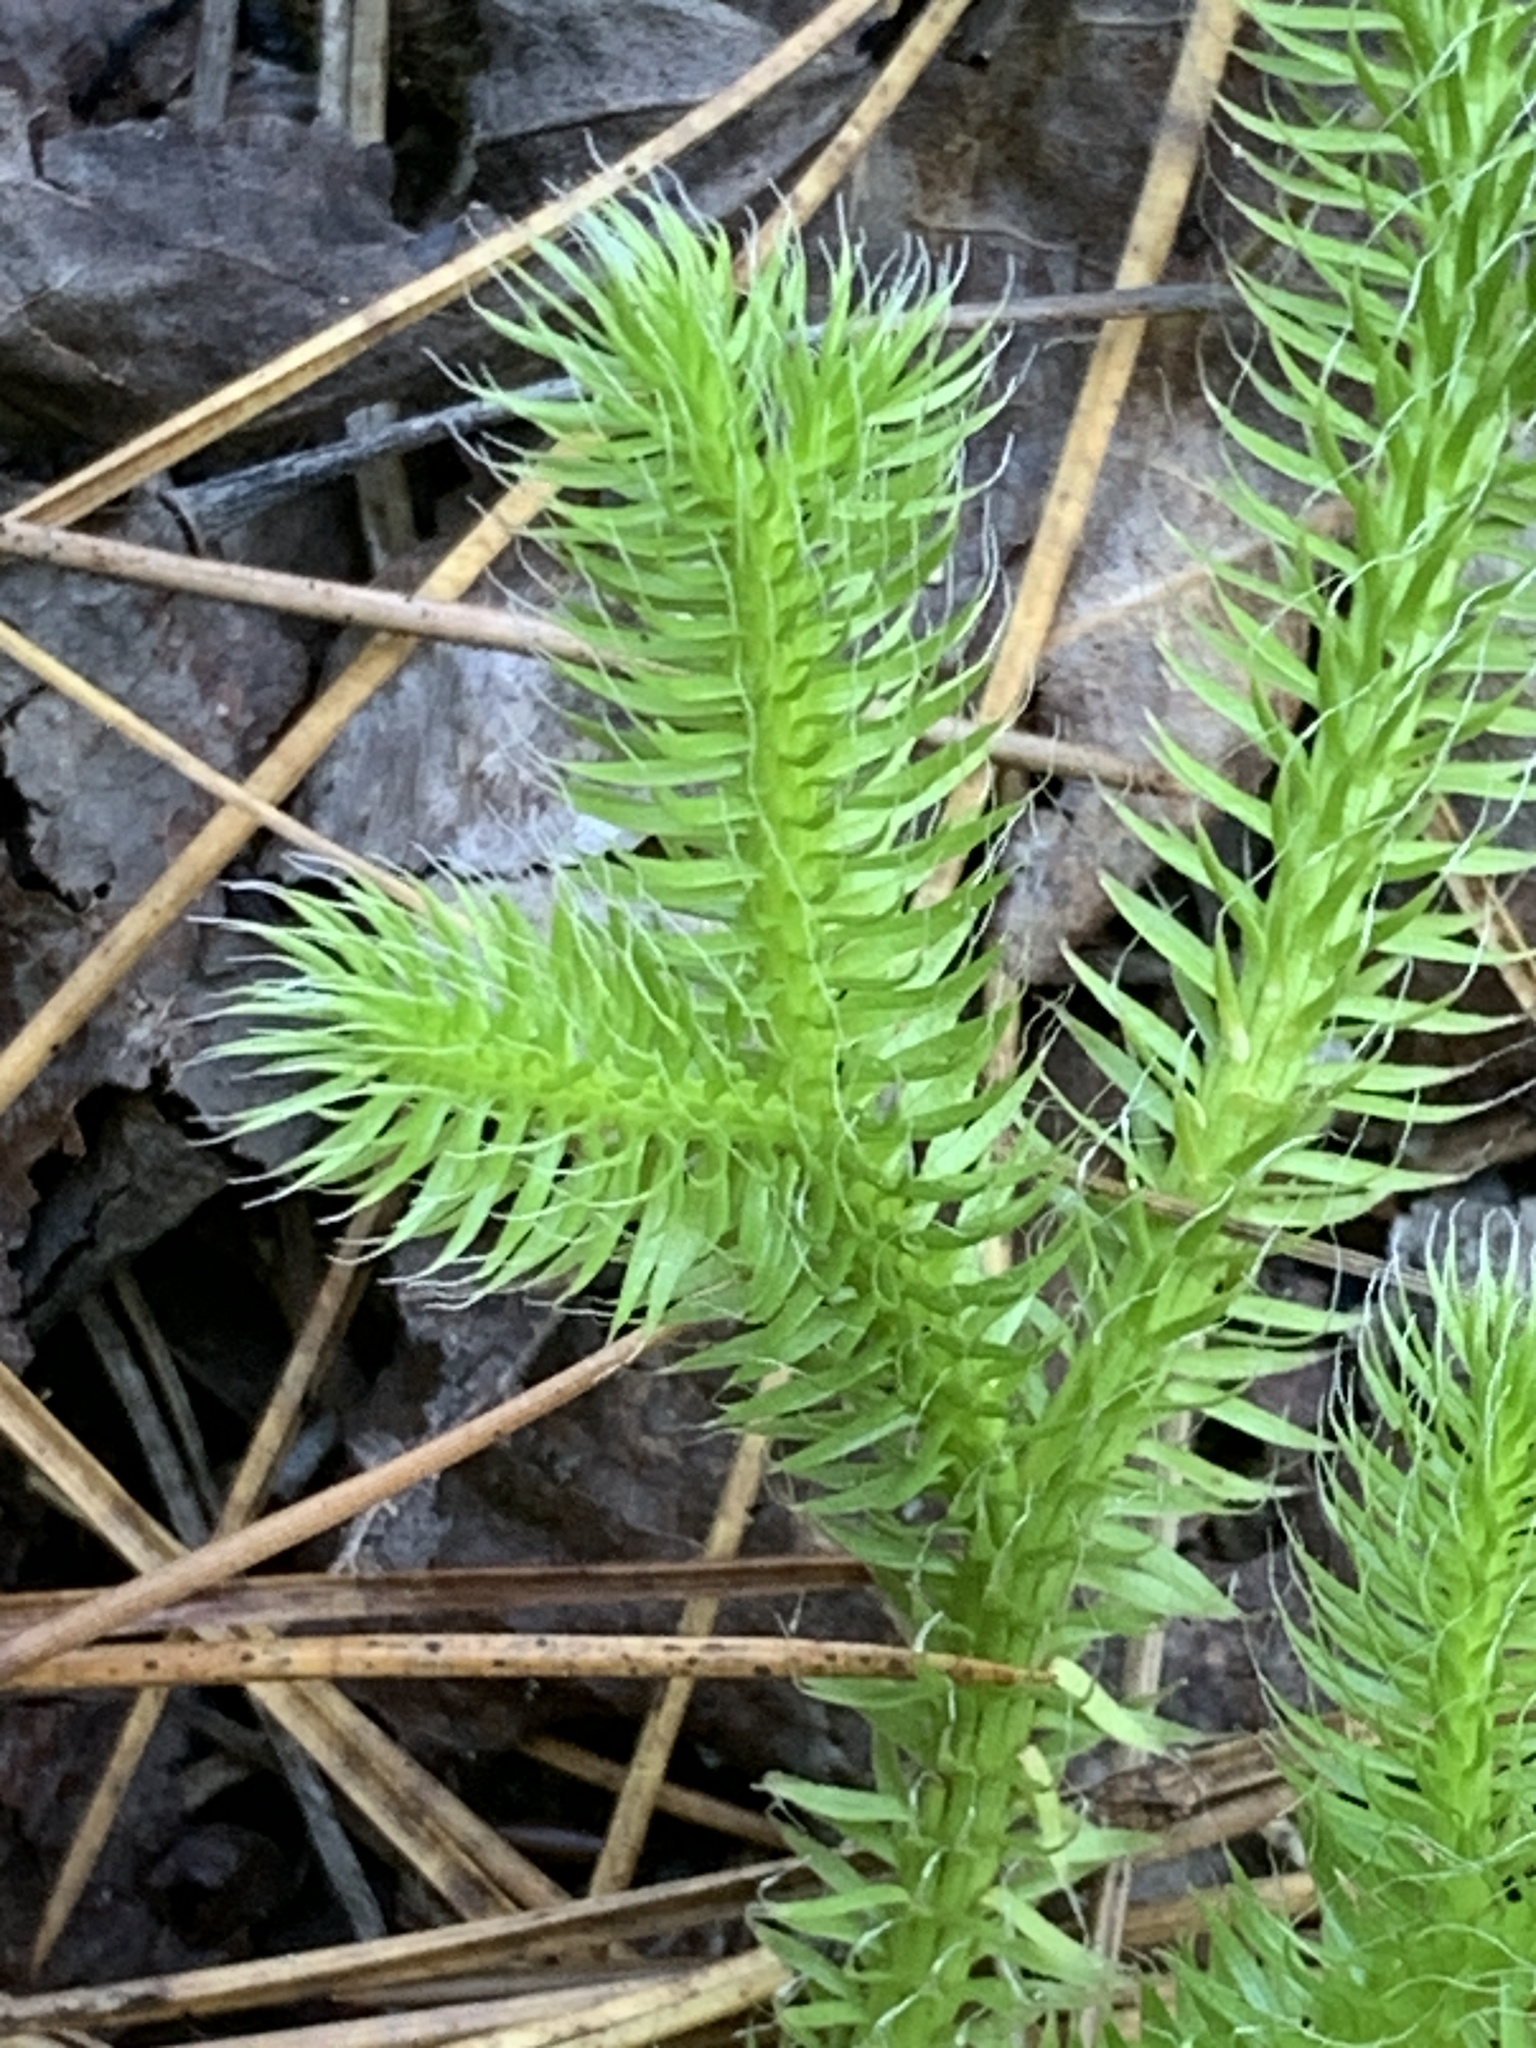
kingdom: Plantae
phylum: Tracheophyta
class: Lycopodiopsida
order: Lycopodiales
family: Lycopodiaceae
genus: Lycopodium
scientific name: Lycopodium clavatum
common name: Stag's-horn clubmoss
